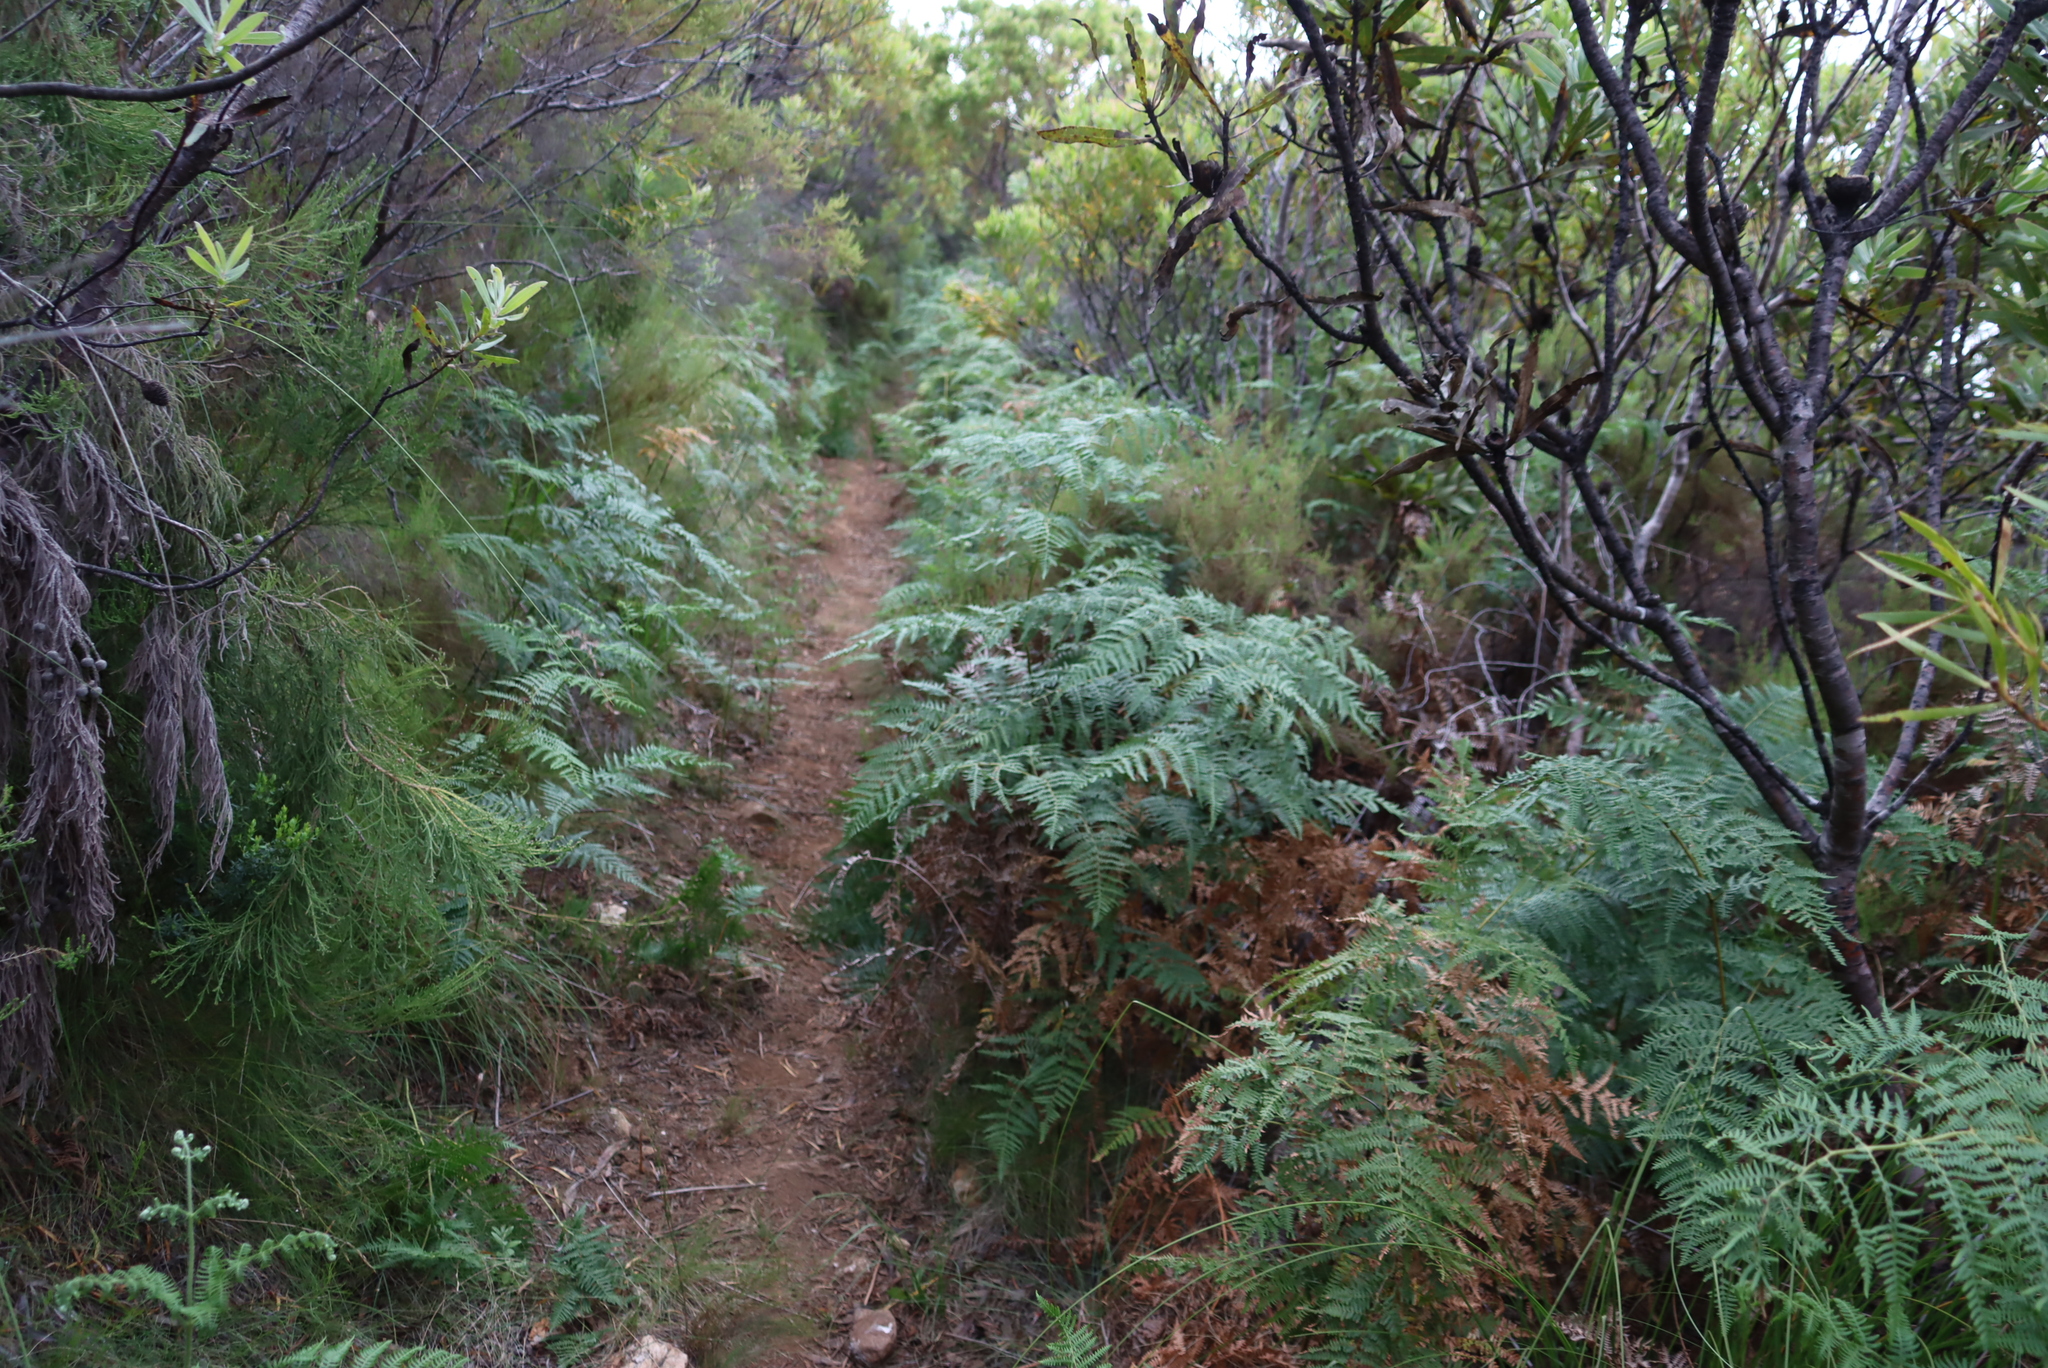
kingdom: Plantae
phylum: Tracheophyta
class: Polypodiopsida
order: Polypodiales
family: Dennstaedtiaceae
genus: Pteridium
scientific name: Pteridium aquilinum
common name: Bracken
